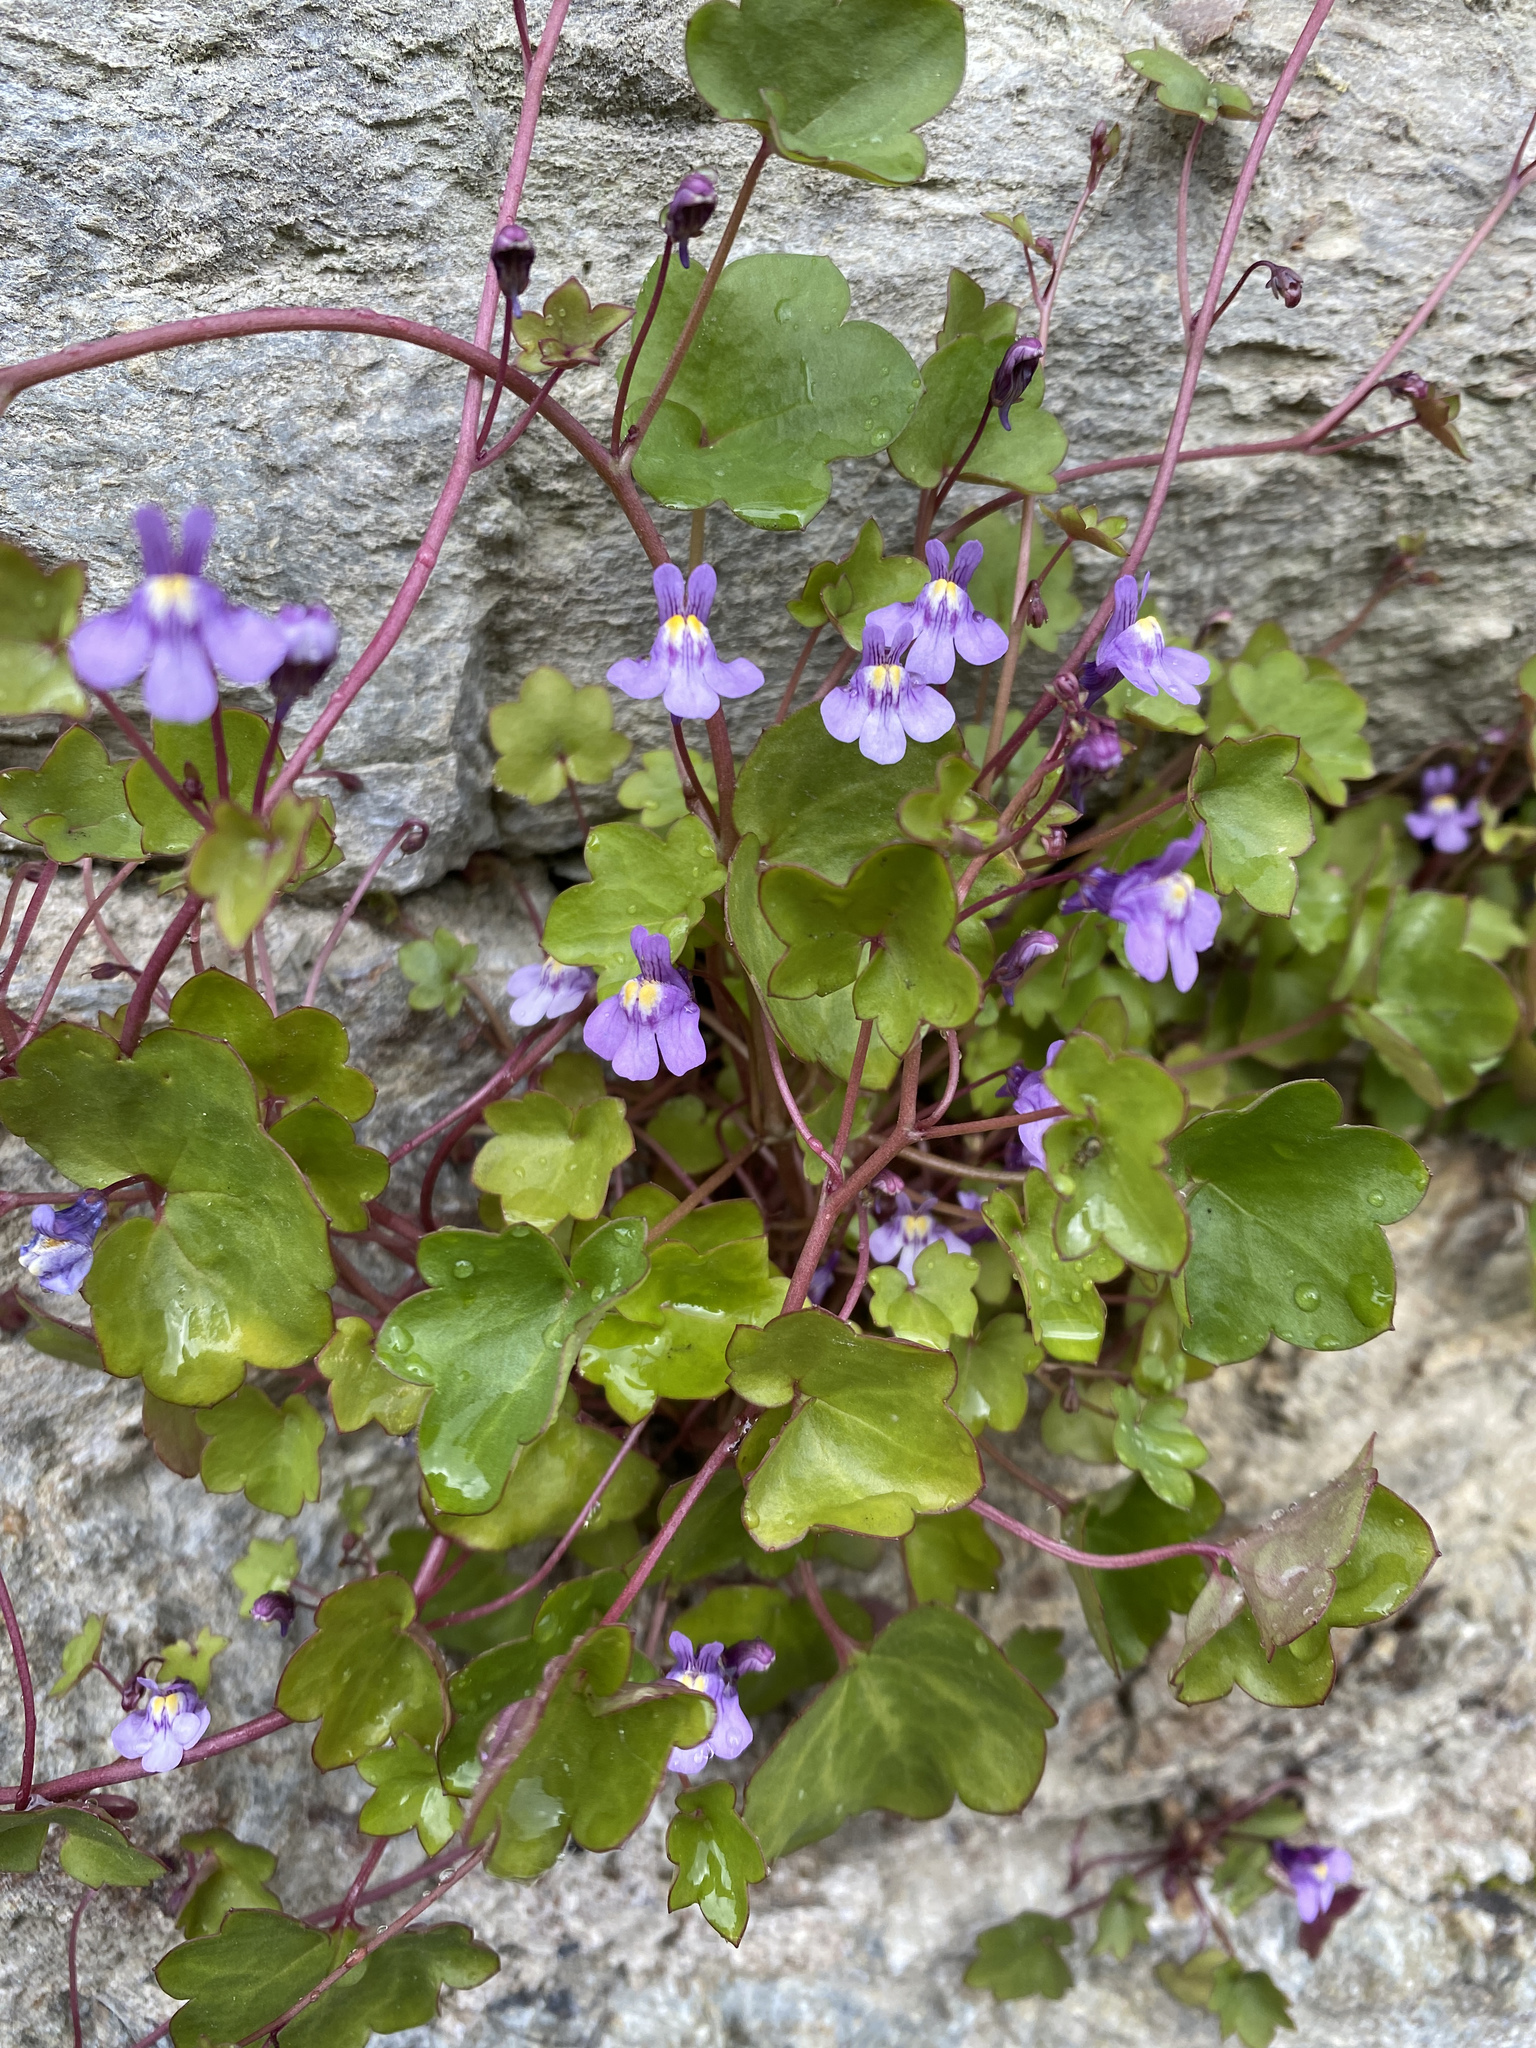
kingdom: Plantae
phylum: Tracheophyta
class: Magnoliopsida
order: Lamiales
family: Plantaginaceae
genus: Cymbalaria
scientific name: Cymbalaria muralis
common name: Ivy-leaved toadflax
